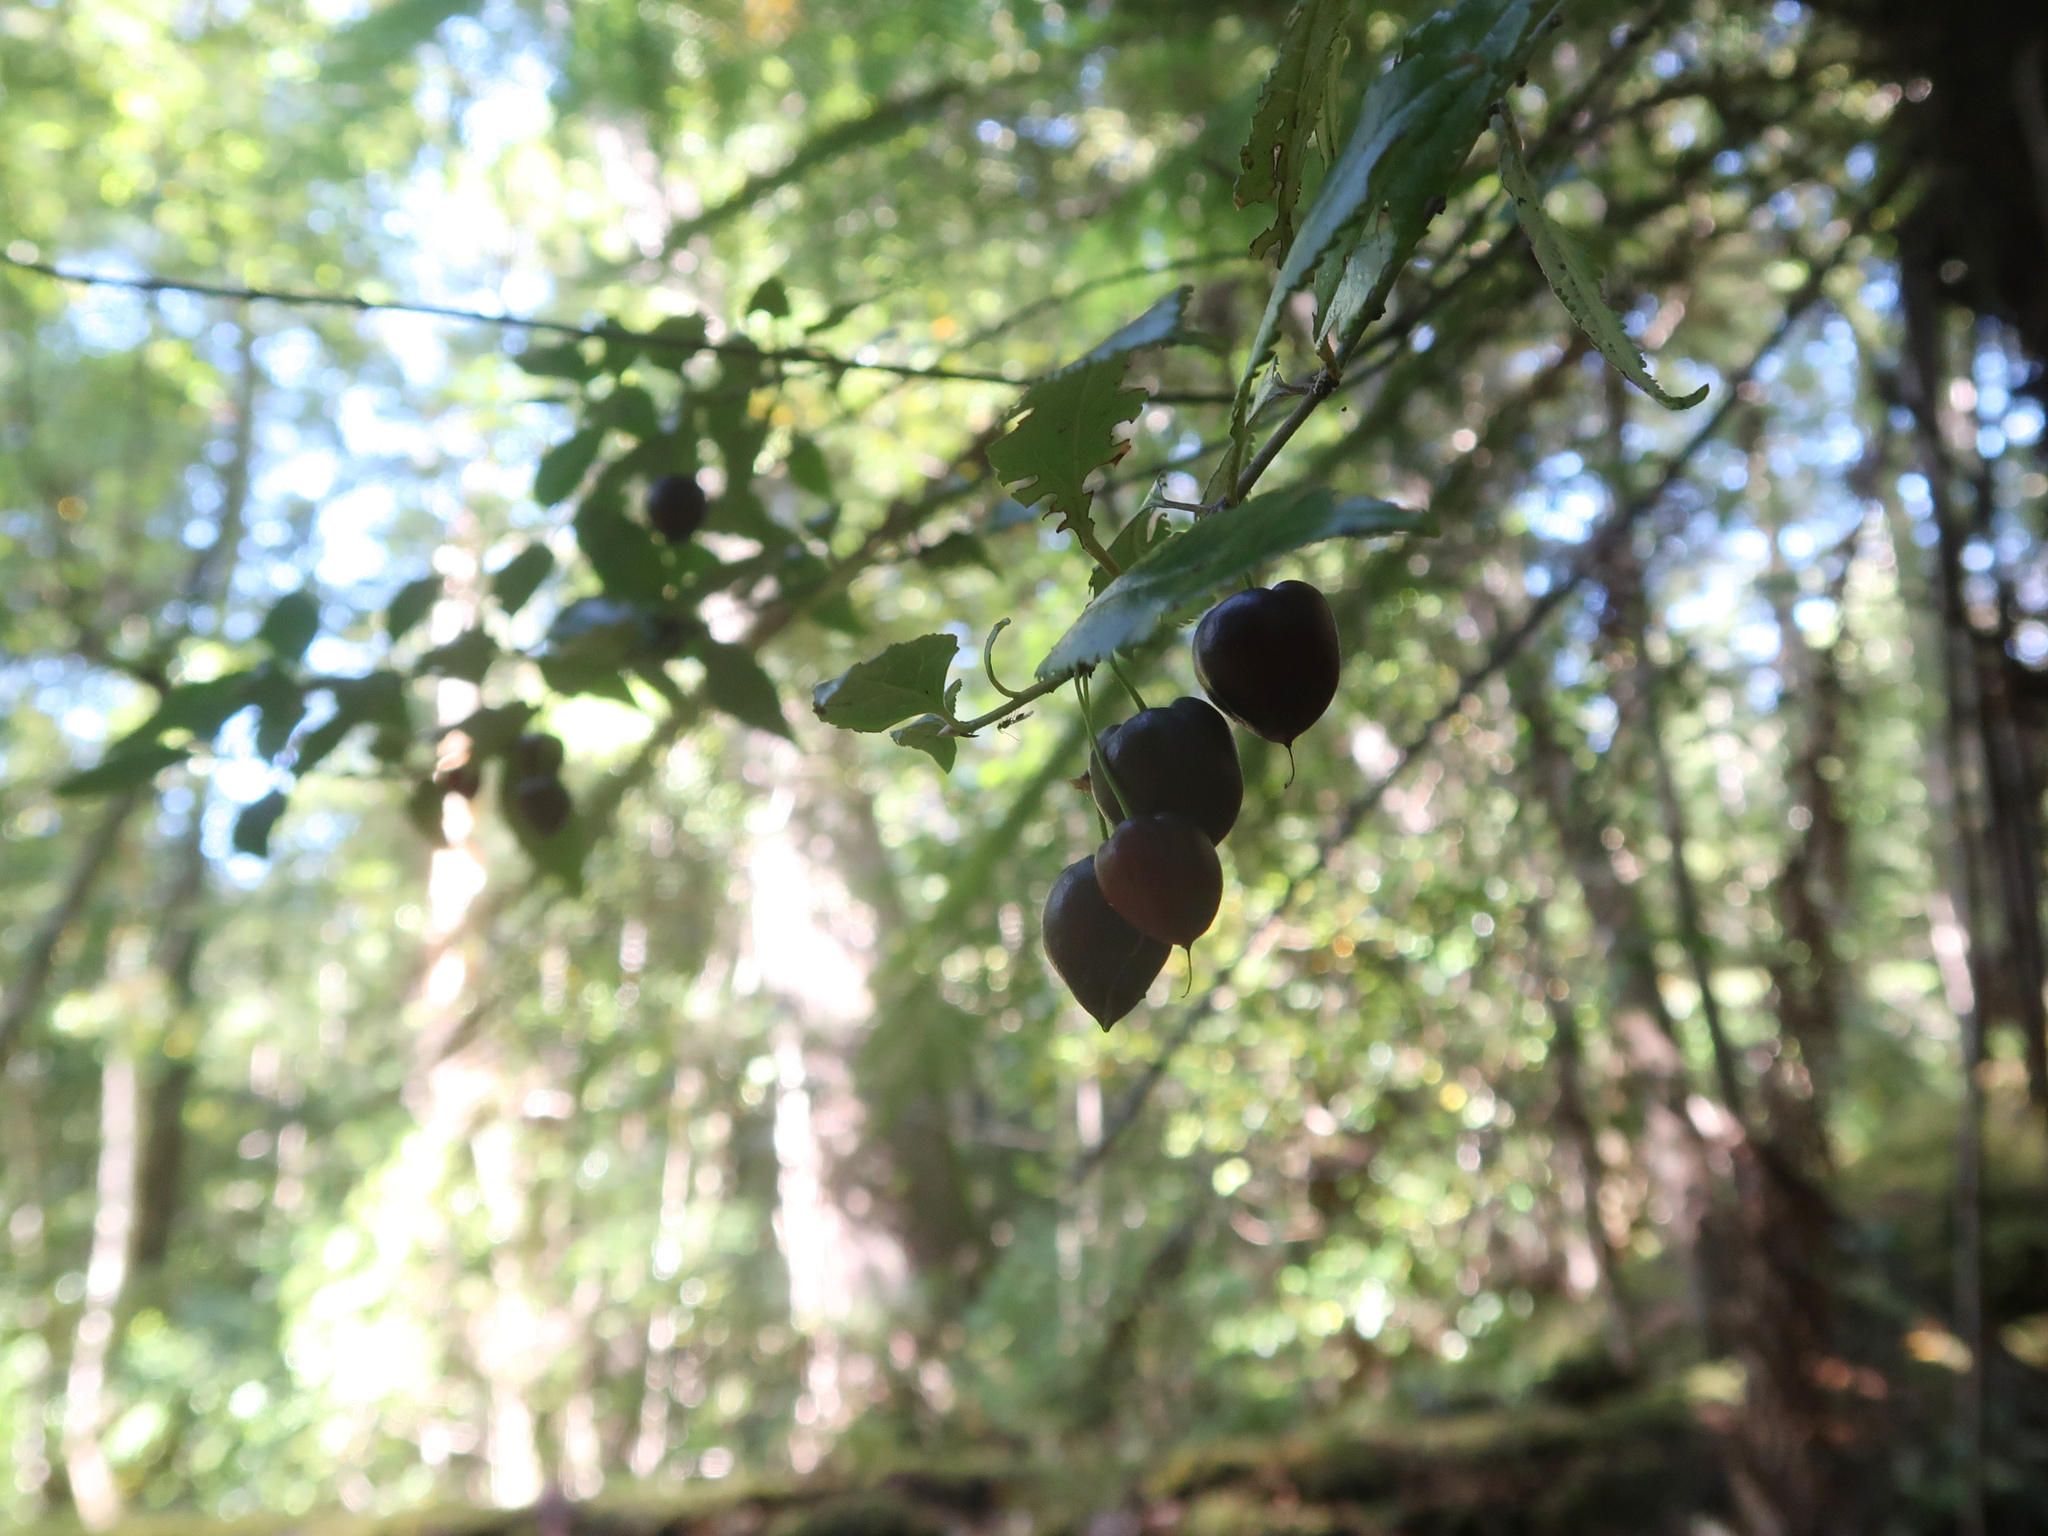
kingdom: Plantae
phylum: Tracheophyta
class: Magnoliopsida
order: Oxalidales
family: Elaeocarpaceae
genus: Aristotelia
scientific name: Aristotelia peduncularis
